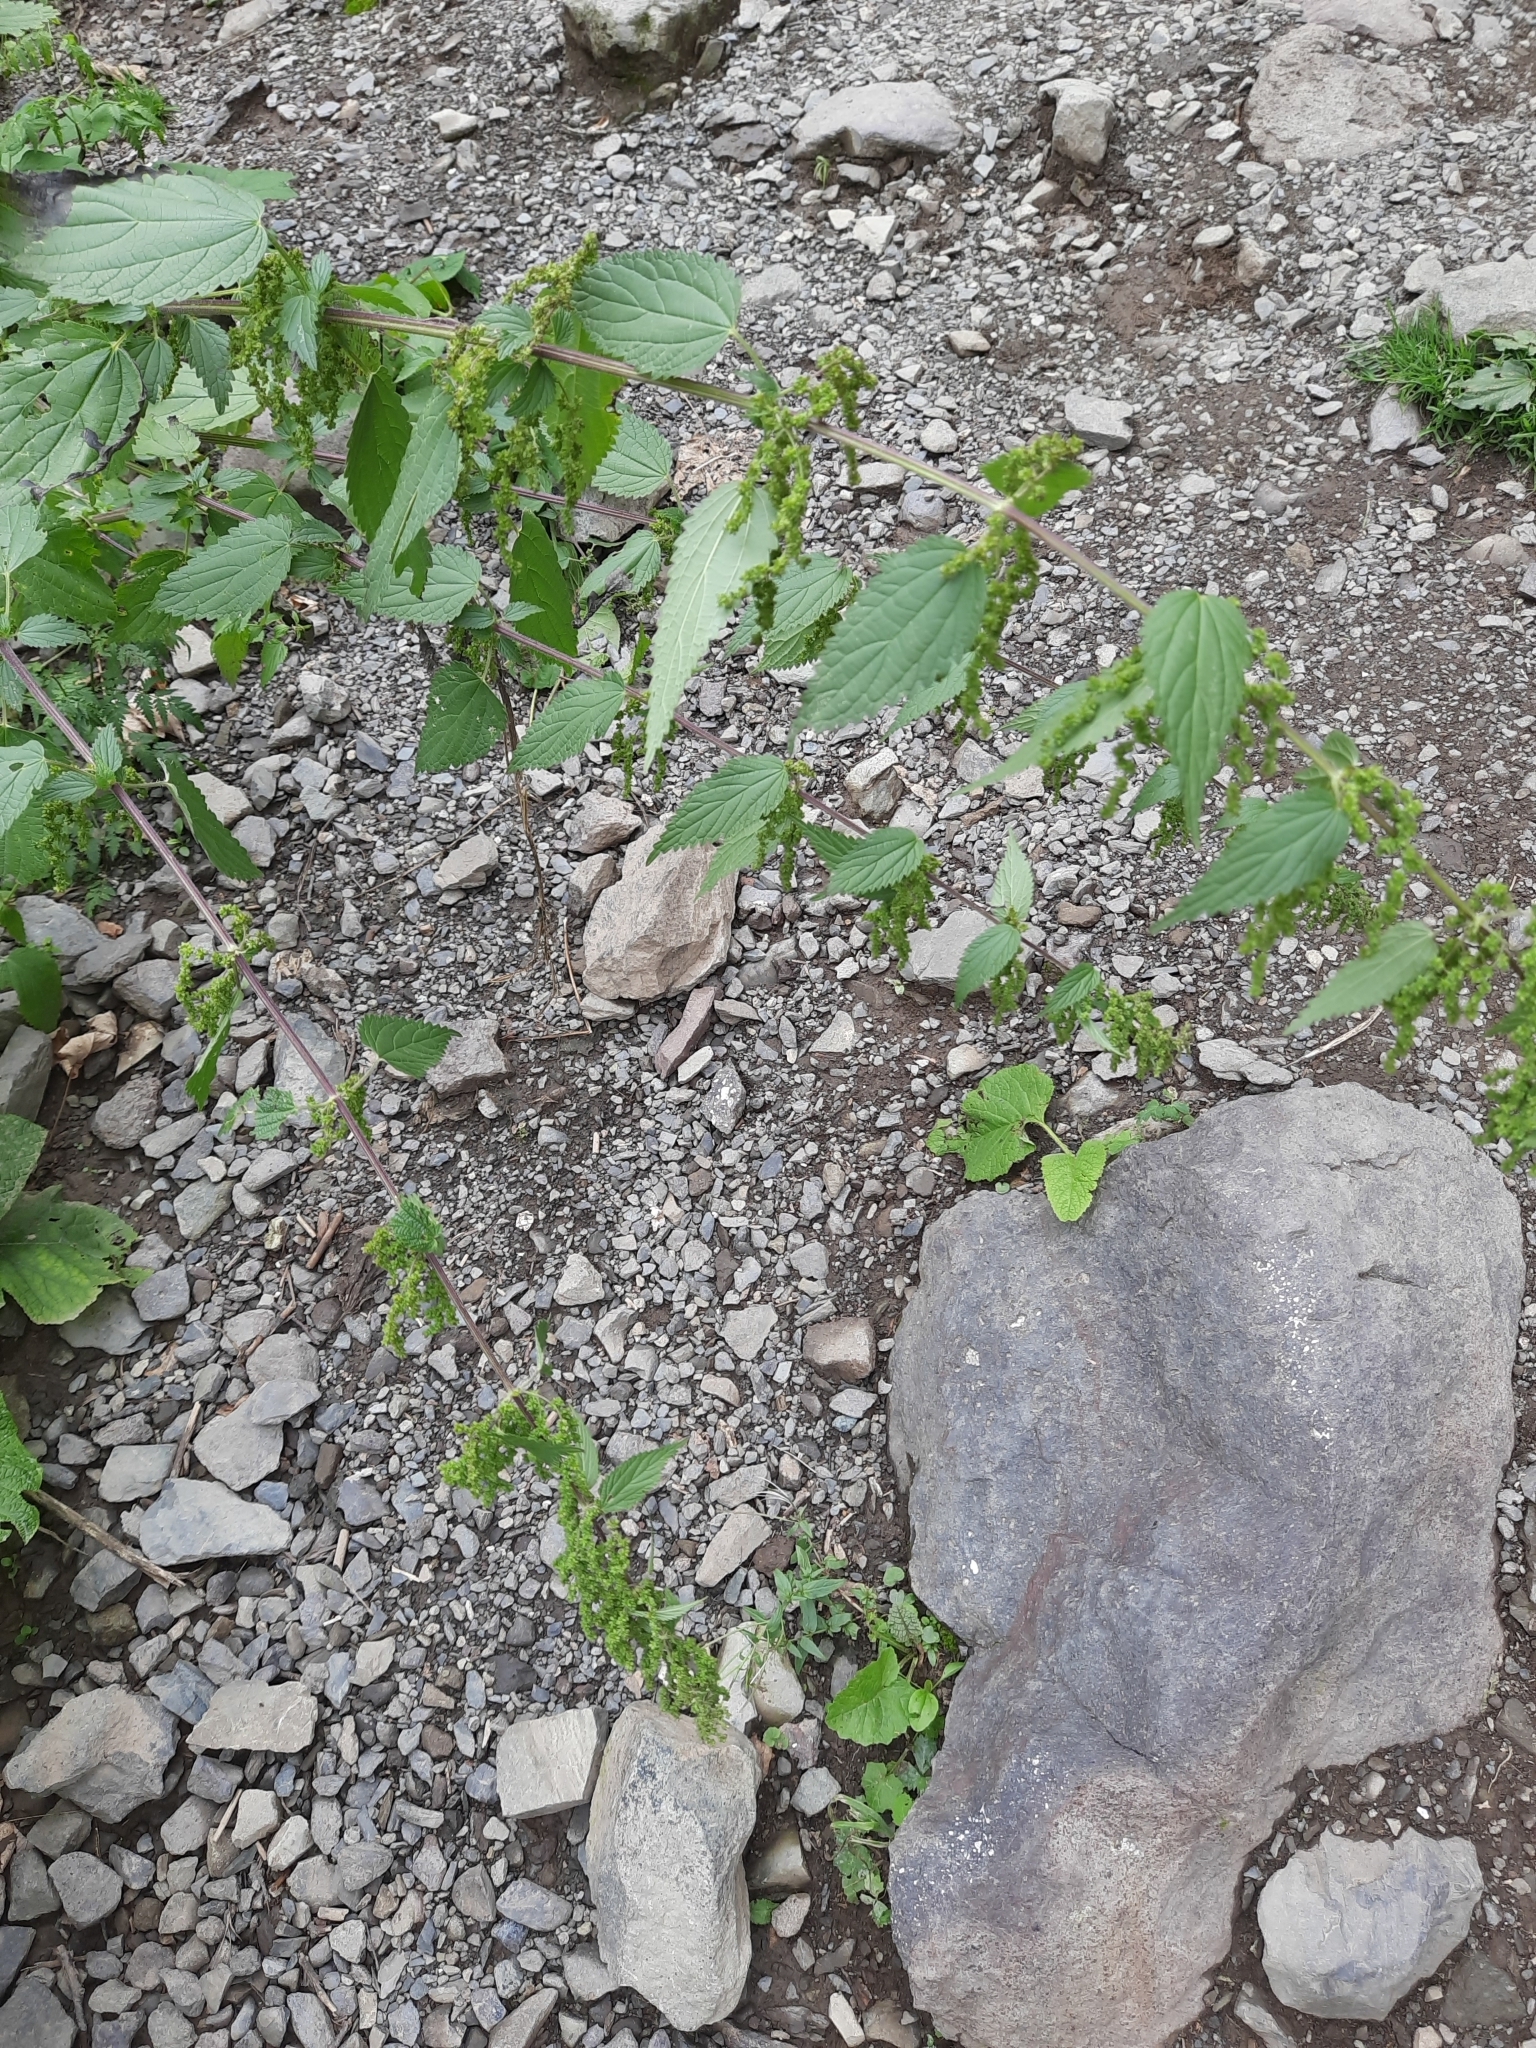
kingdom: Plantae
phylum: Tracheophyta
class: Magnoliopsida
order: Rosales
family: Urticaceae
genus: Urtica
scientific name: Urtica dioica
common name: Common nettle
